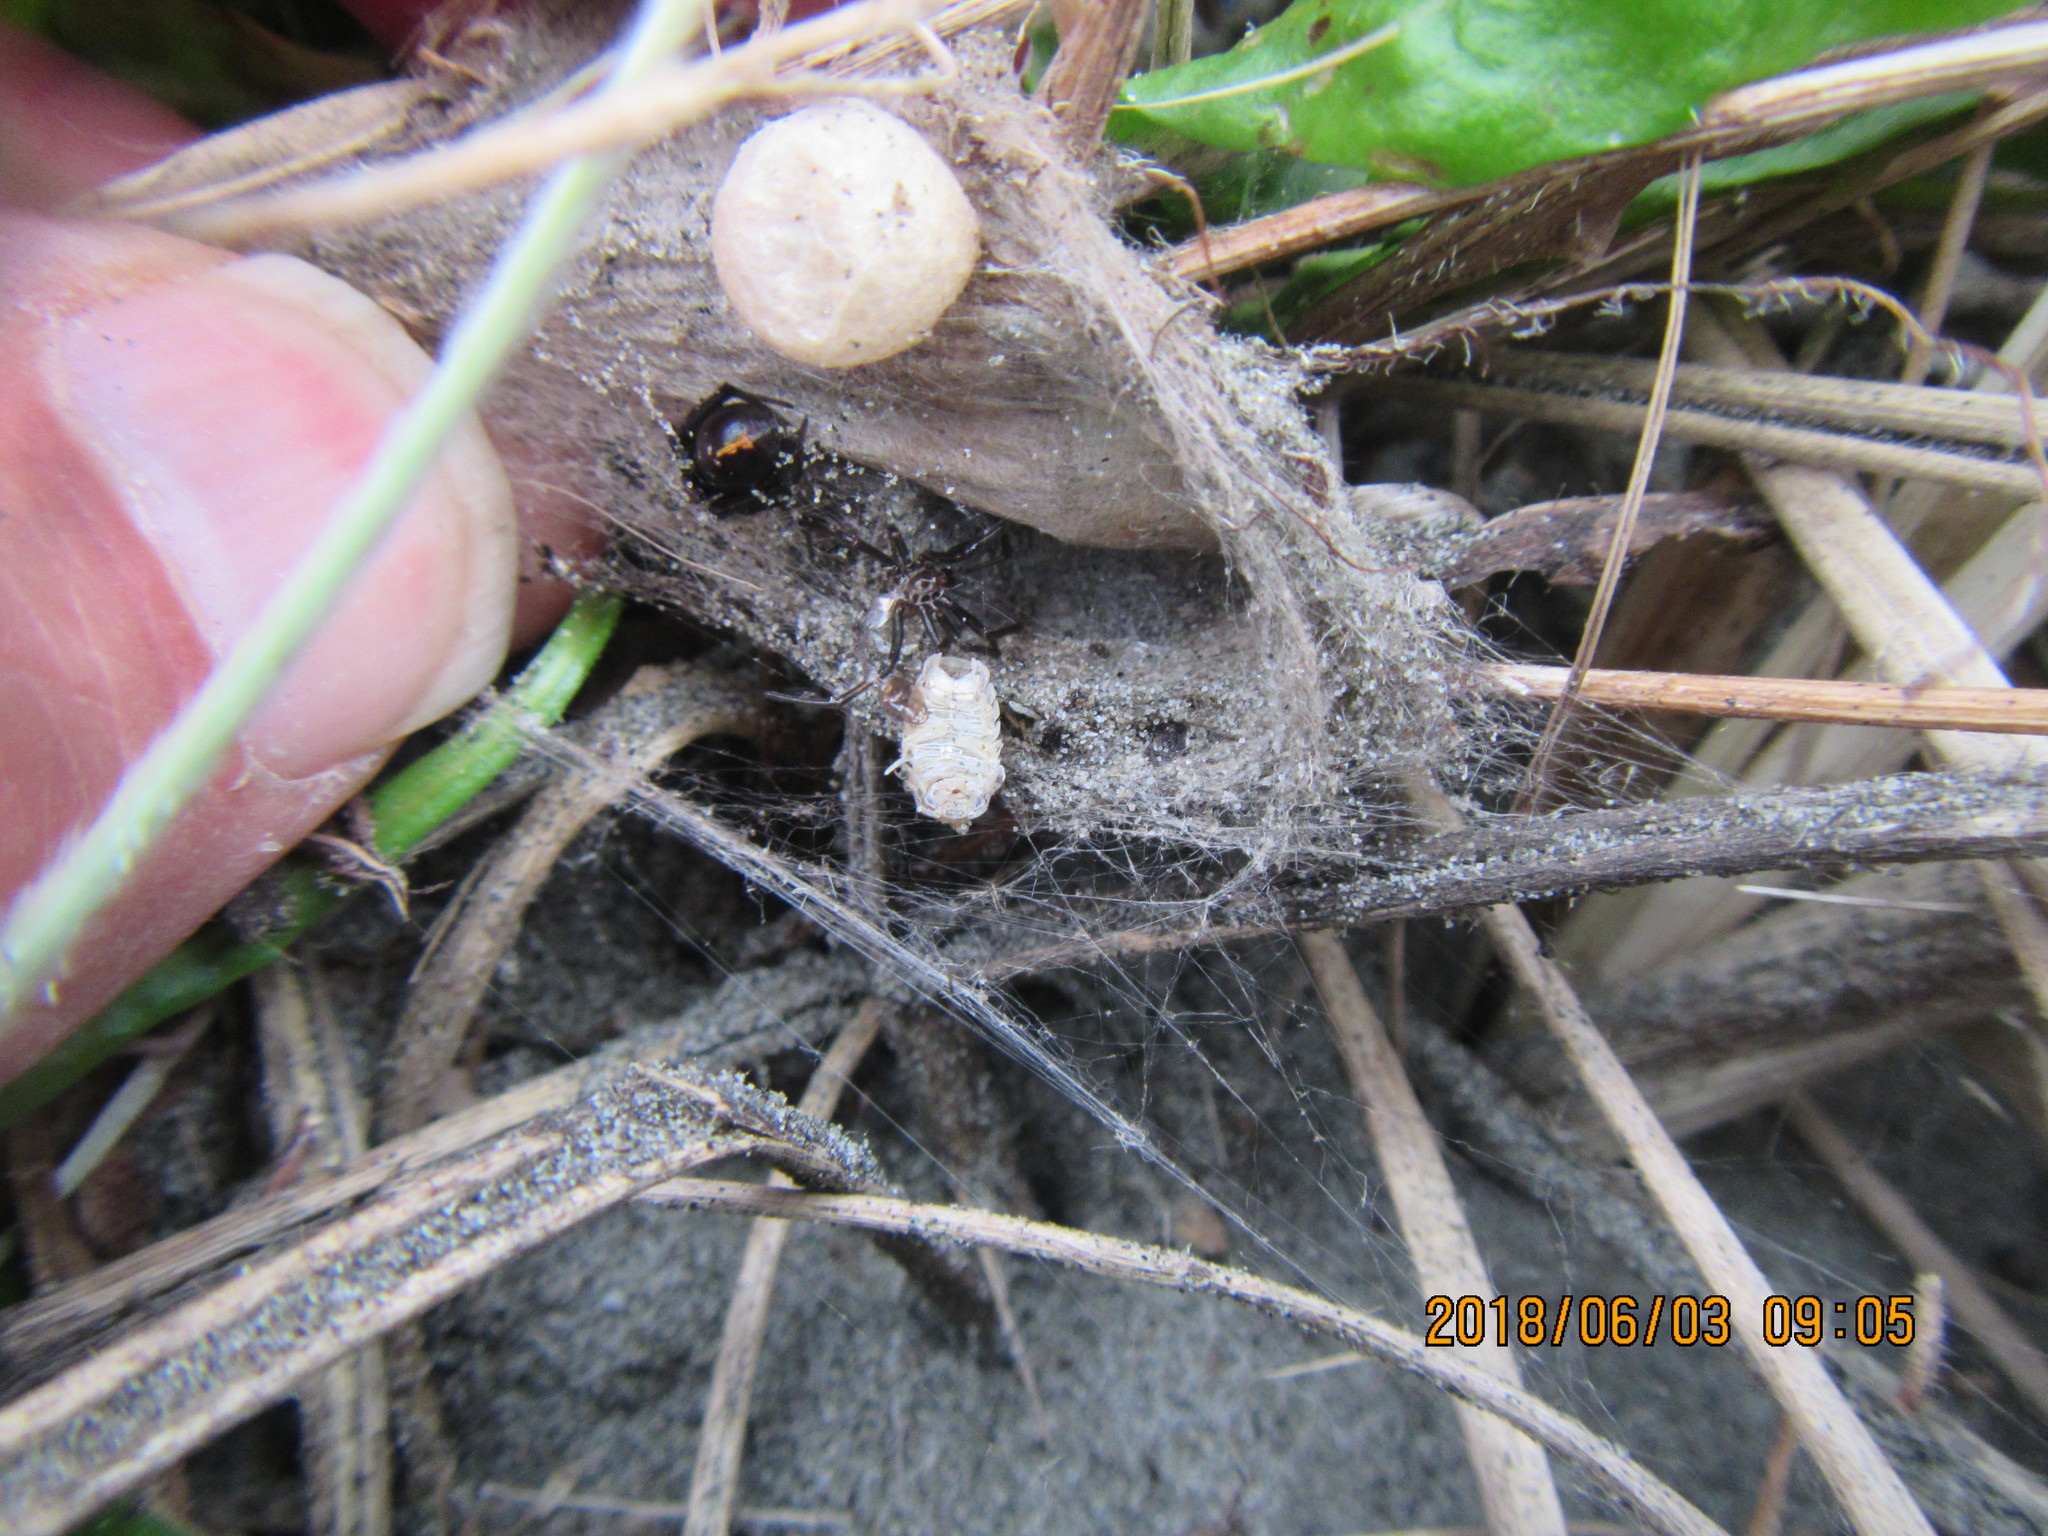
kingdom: Animalia
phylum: Arthropoda
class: Arachnida
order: Araneae
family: Theridiidae
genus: Steatoda
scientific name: Steatoda capensis
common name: Cobweb weaver
